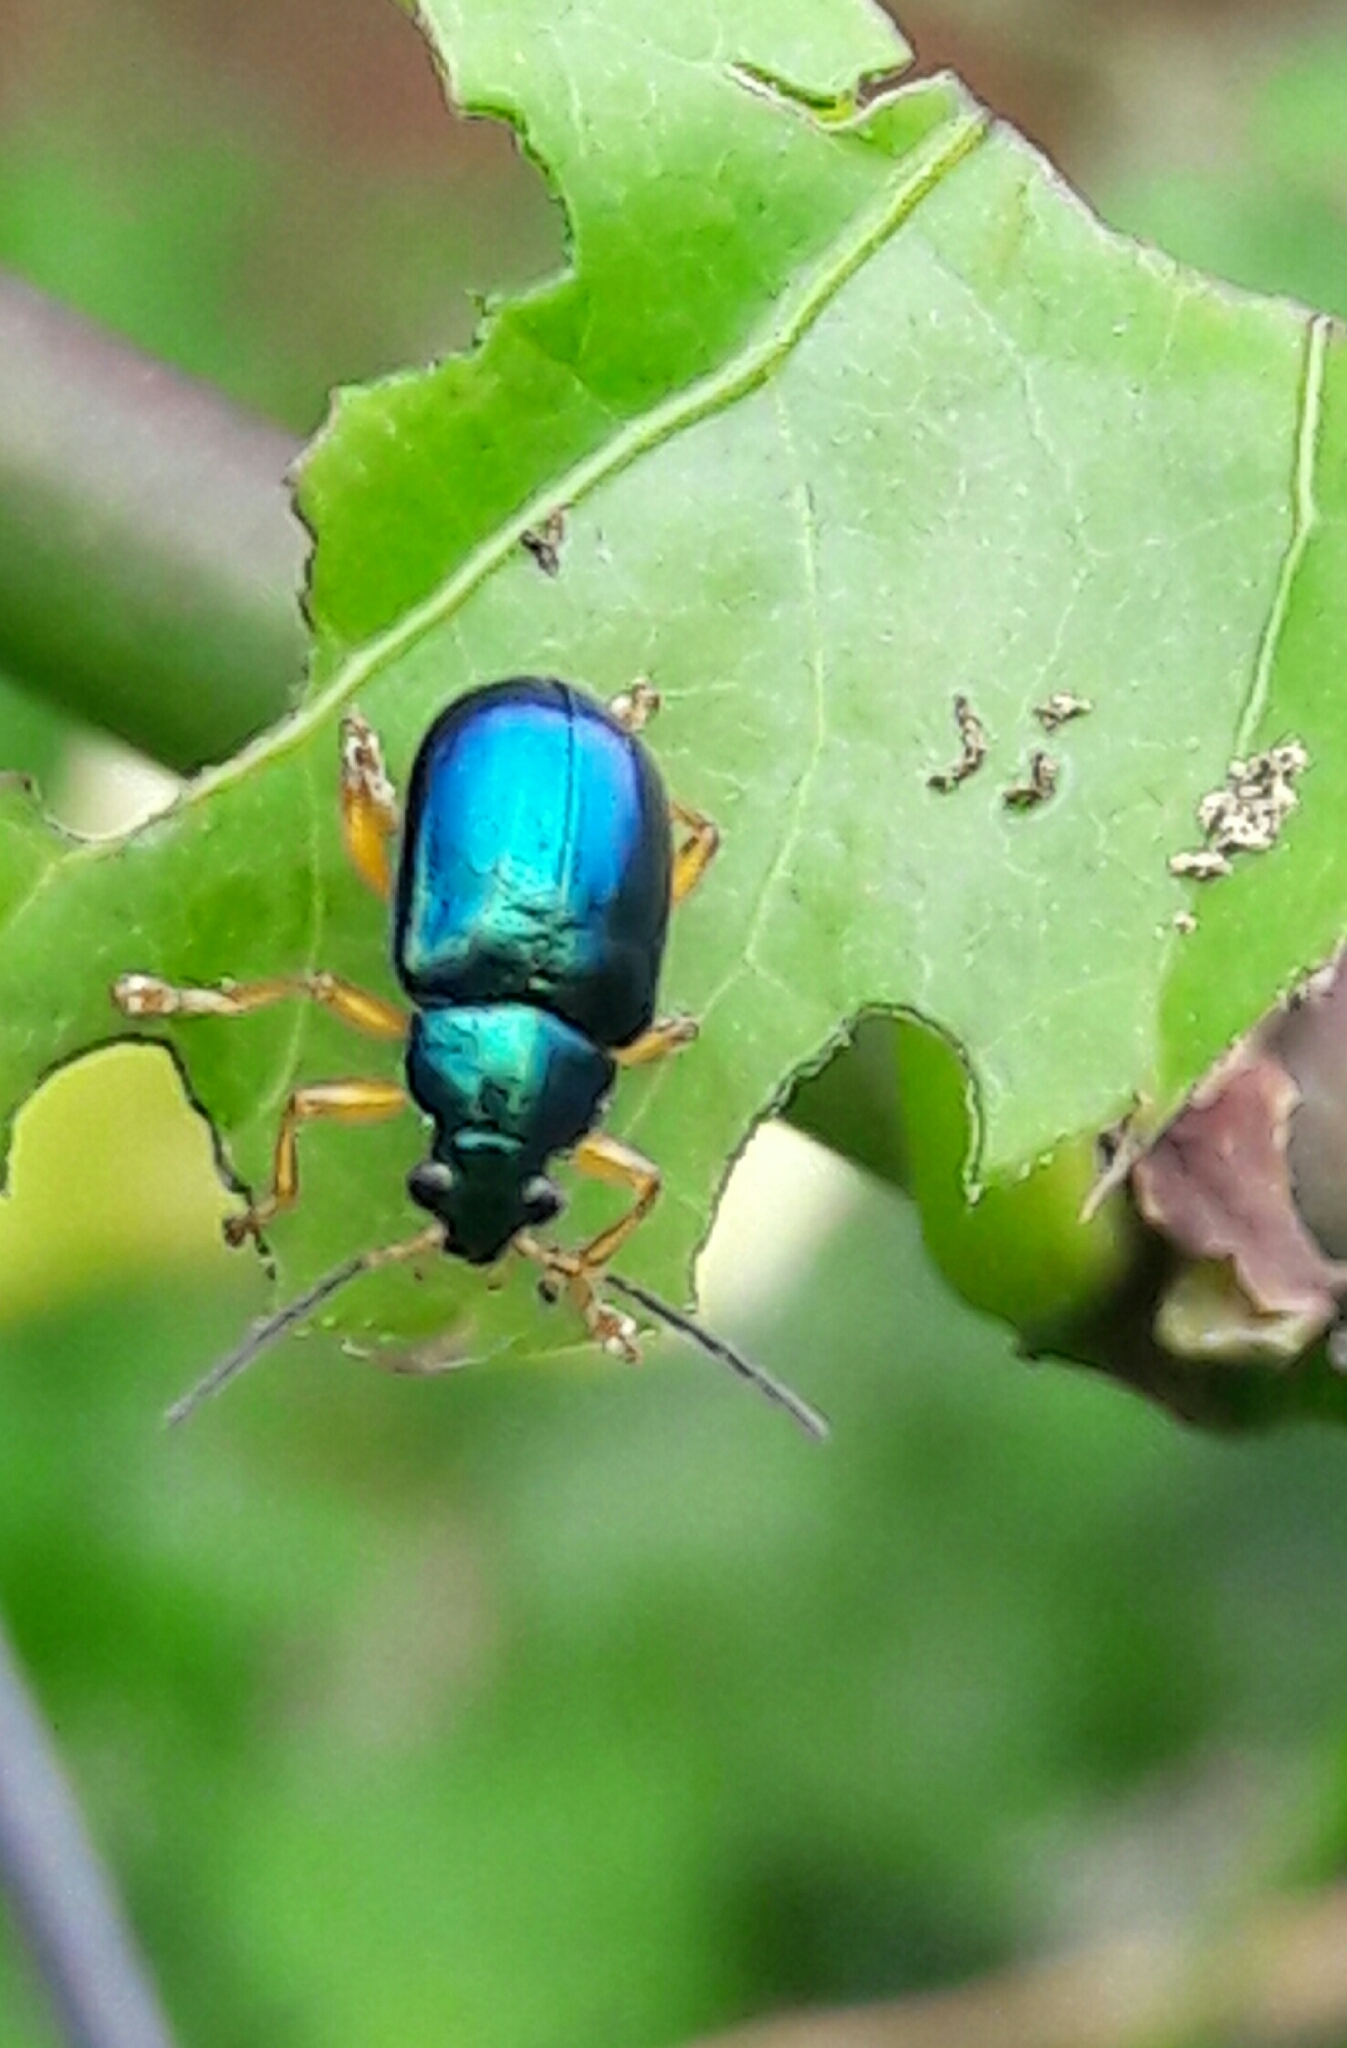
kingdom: Animalia
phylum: Arthropoda
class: Insecta
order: Coleoptera
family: Chrysomelidae
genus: Nodocolaspis
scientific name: Nodocolaspis
